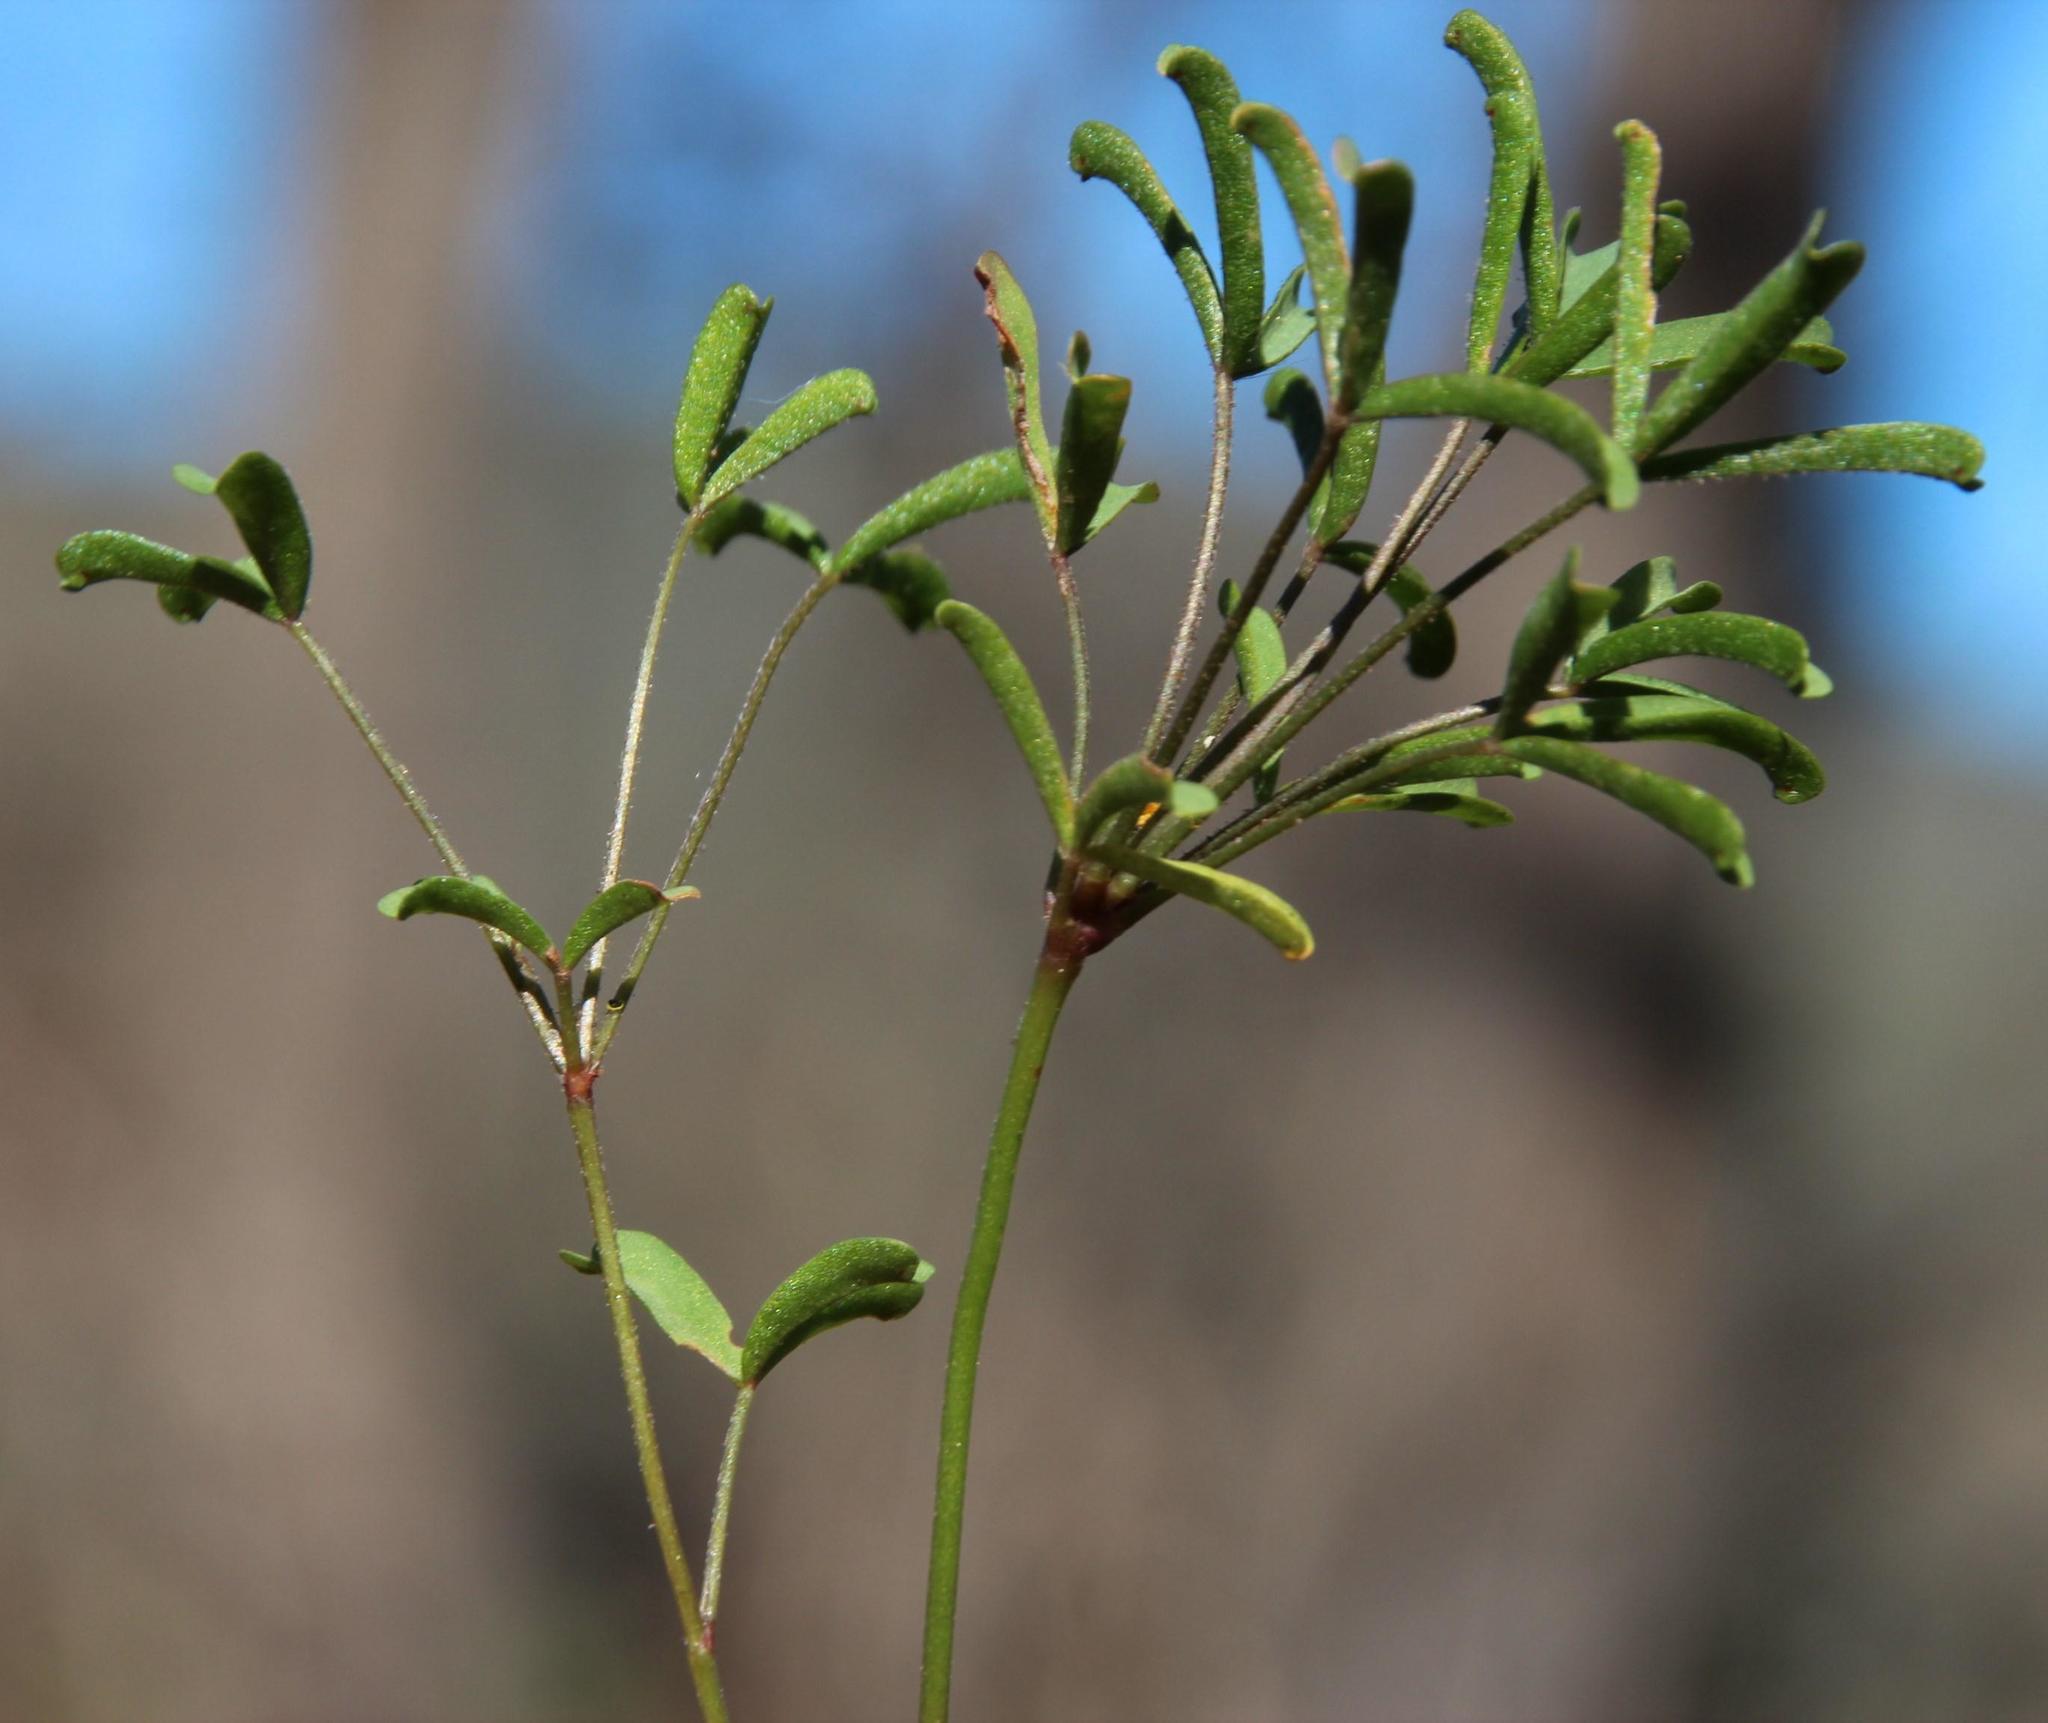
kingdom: Plantae
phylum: Tracheophyta
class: Magnoliopsida
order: Oxalidales
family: Oxalidaceae
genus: Oxalis
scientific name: Oxalis
